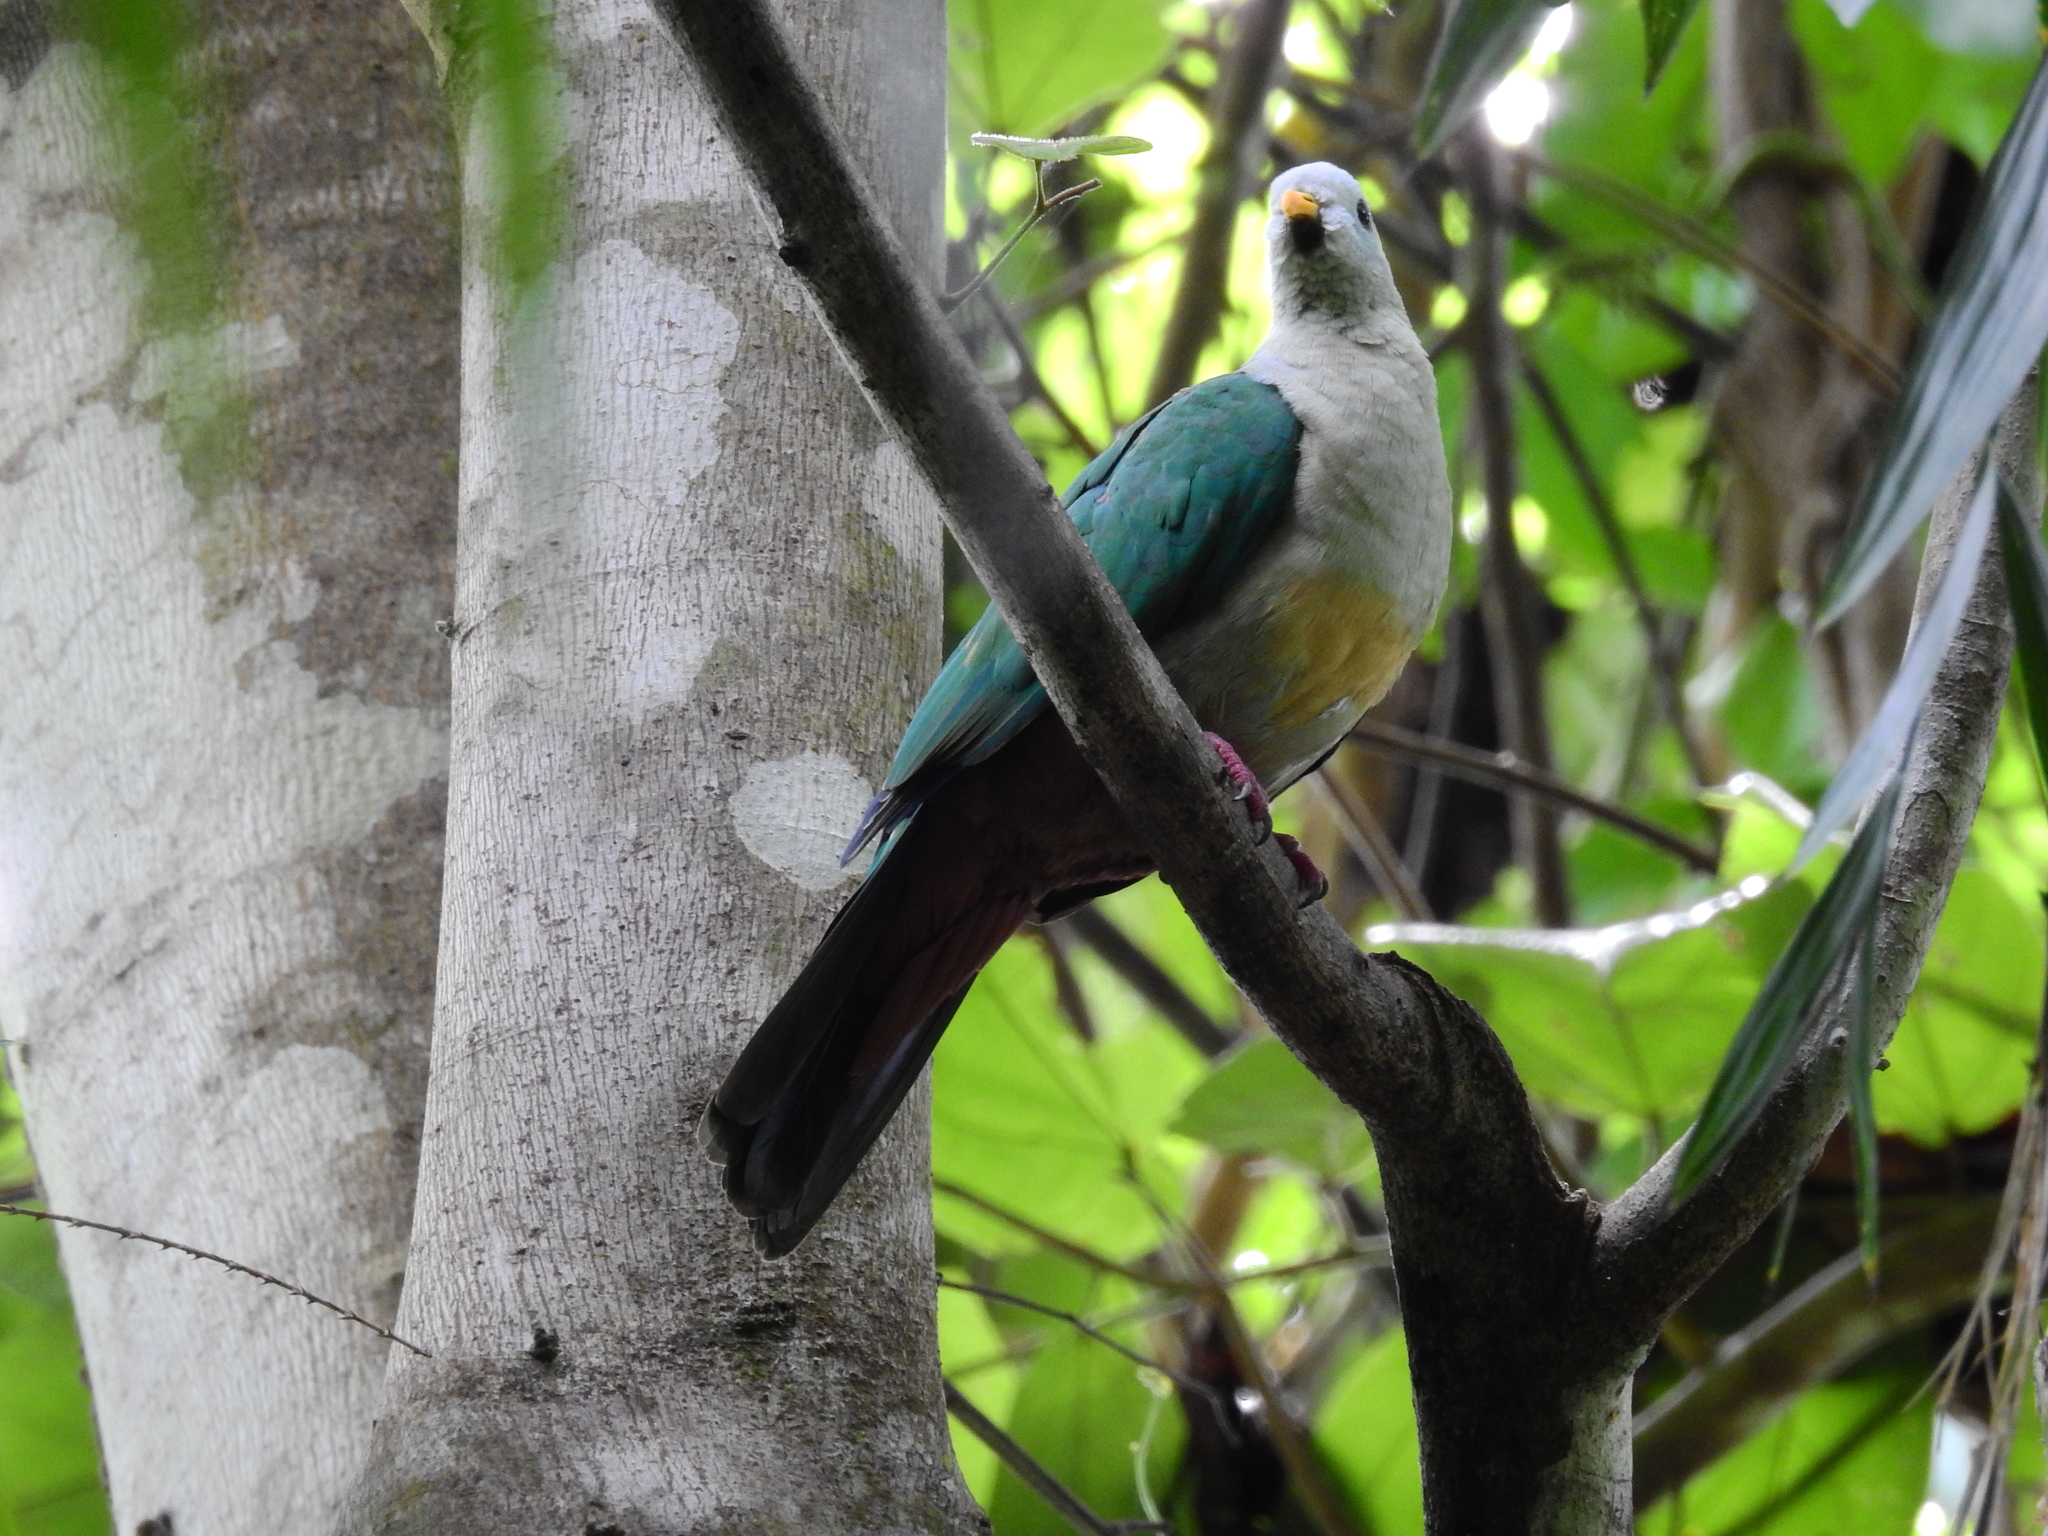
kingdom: Animalia
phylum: Chordata
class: Aves
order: Columbiformes
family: Columbidae
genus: Ptilinopus
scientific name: Ptilinopus epius
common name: Oberholser's fruit dove
